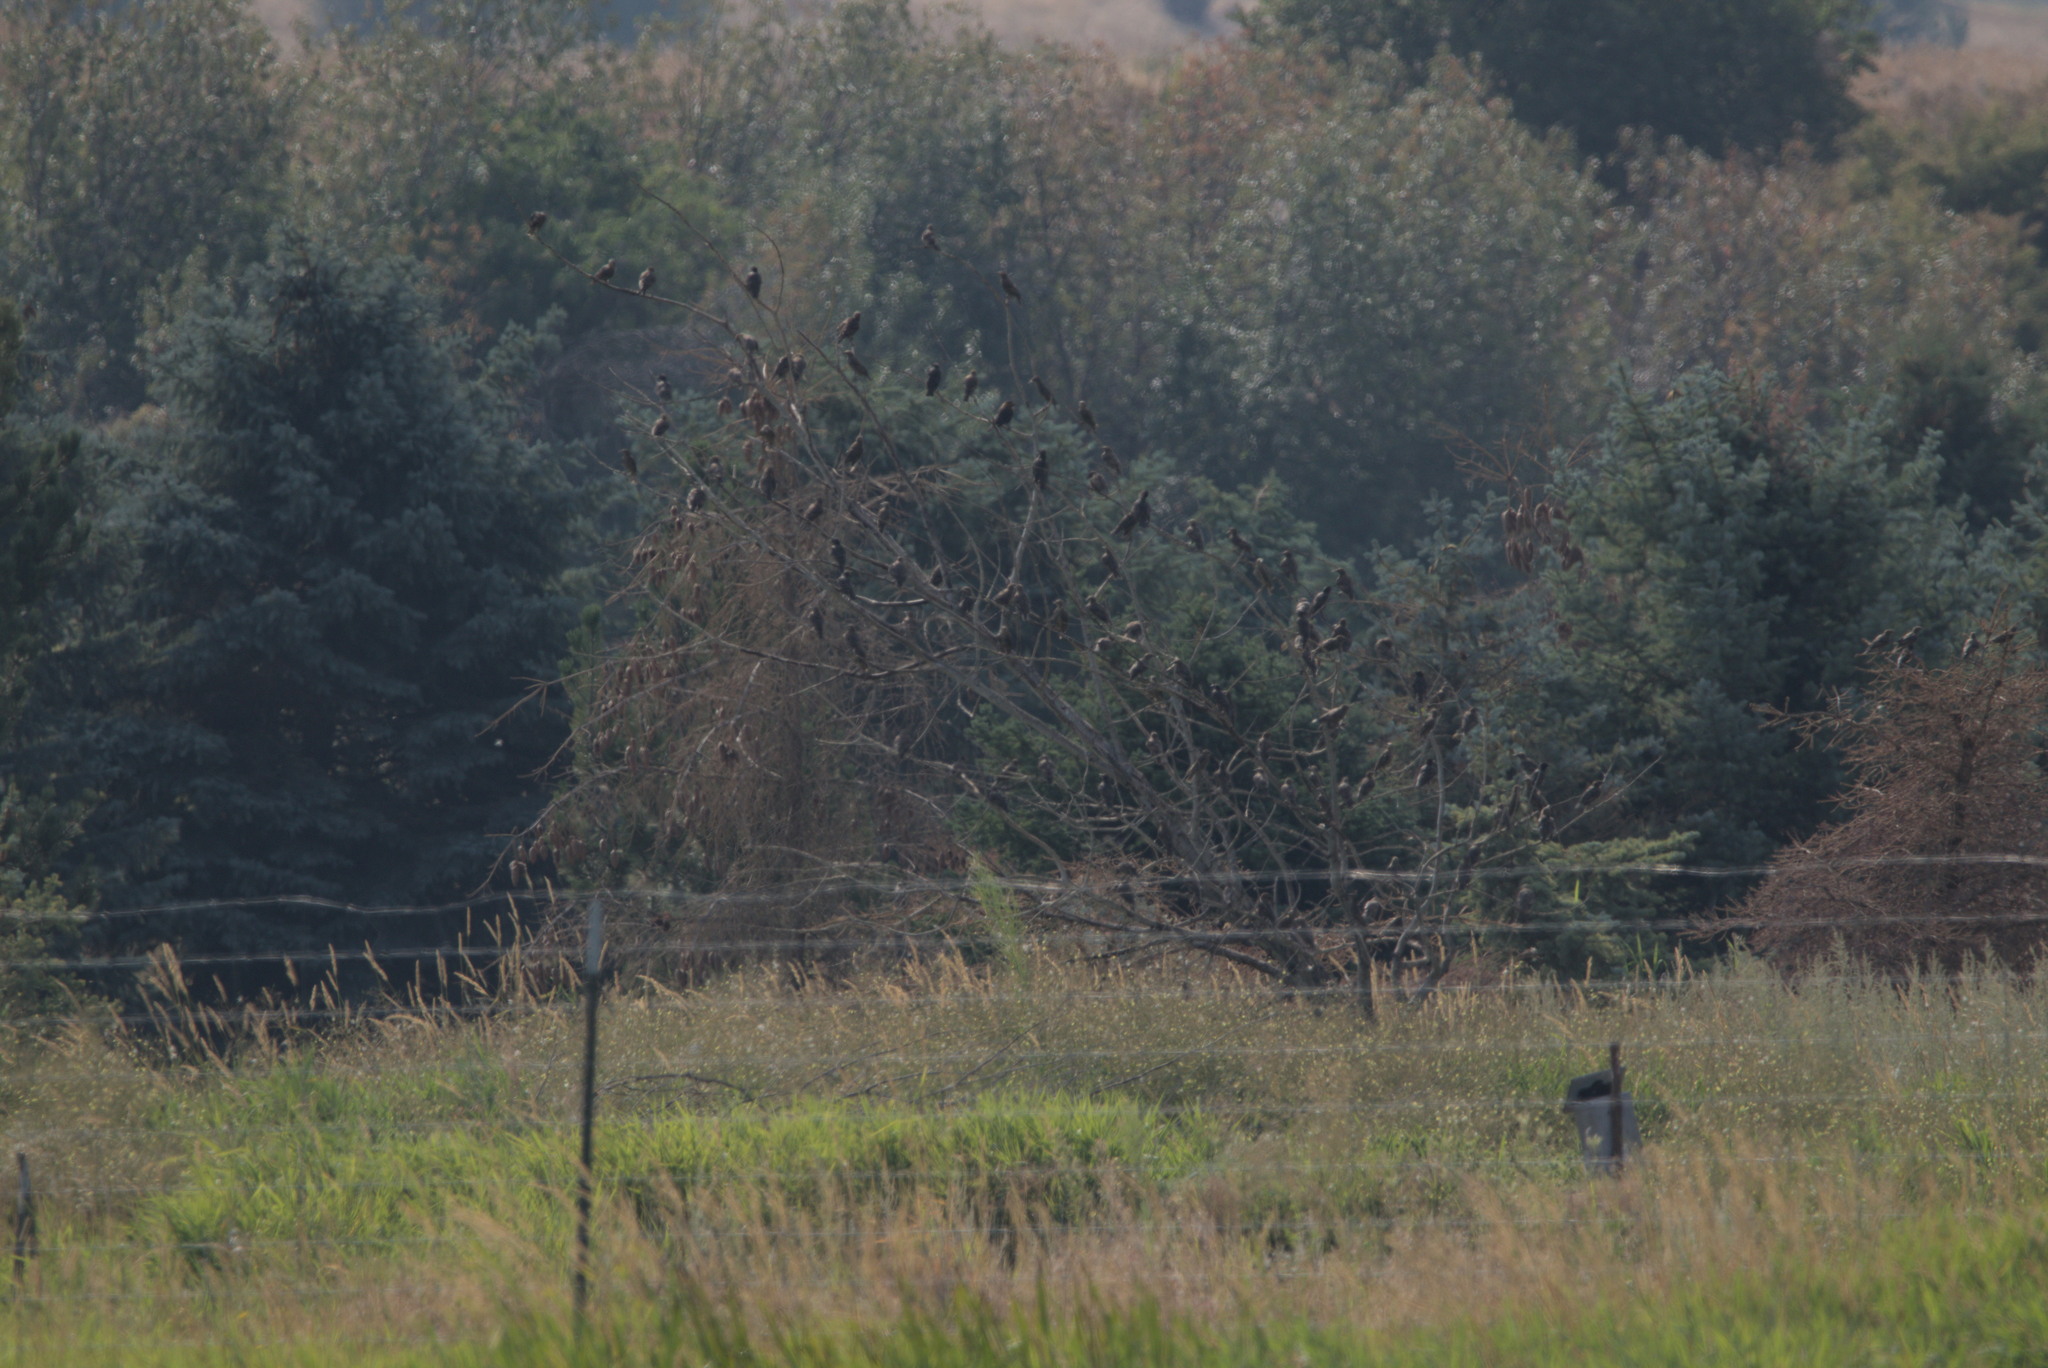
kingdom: Animalia
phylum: Chordata
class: Aves
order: Passeriformes
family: Sturnidae
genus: Sturnus
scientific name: Sturnus vulgaris
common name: Common starling
